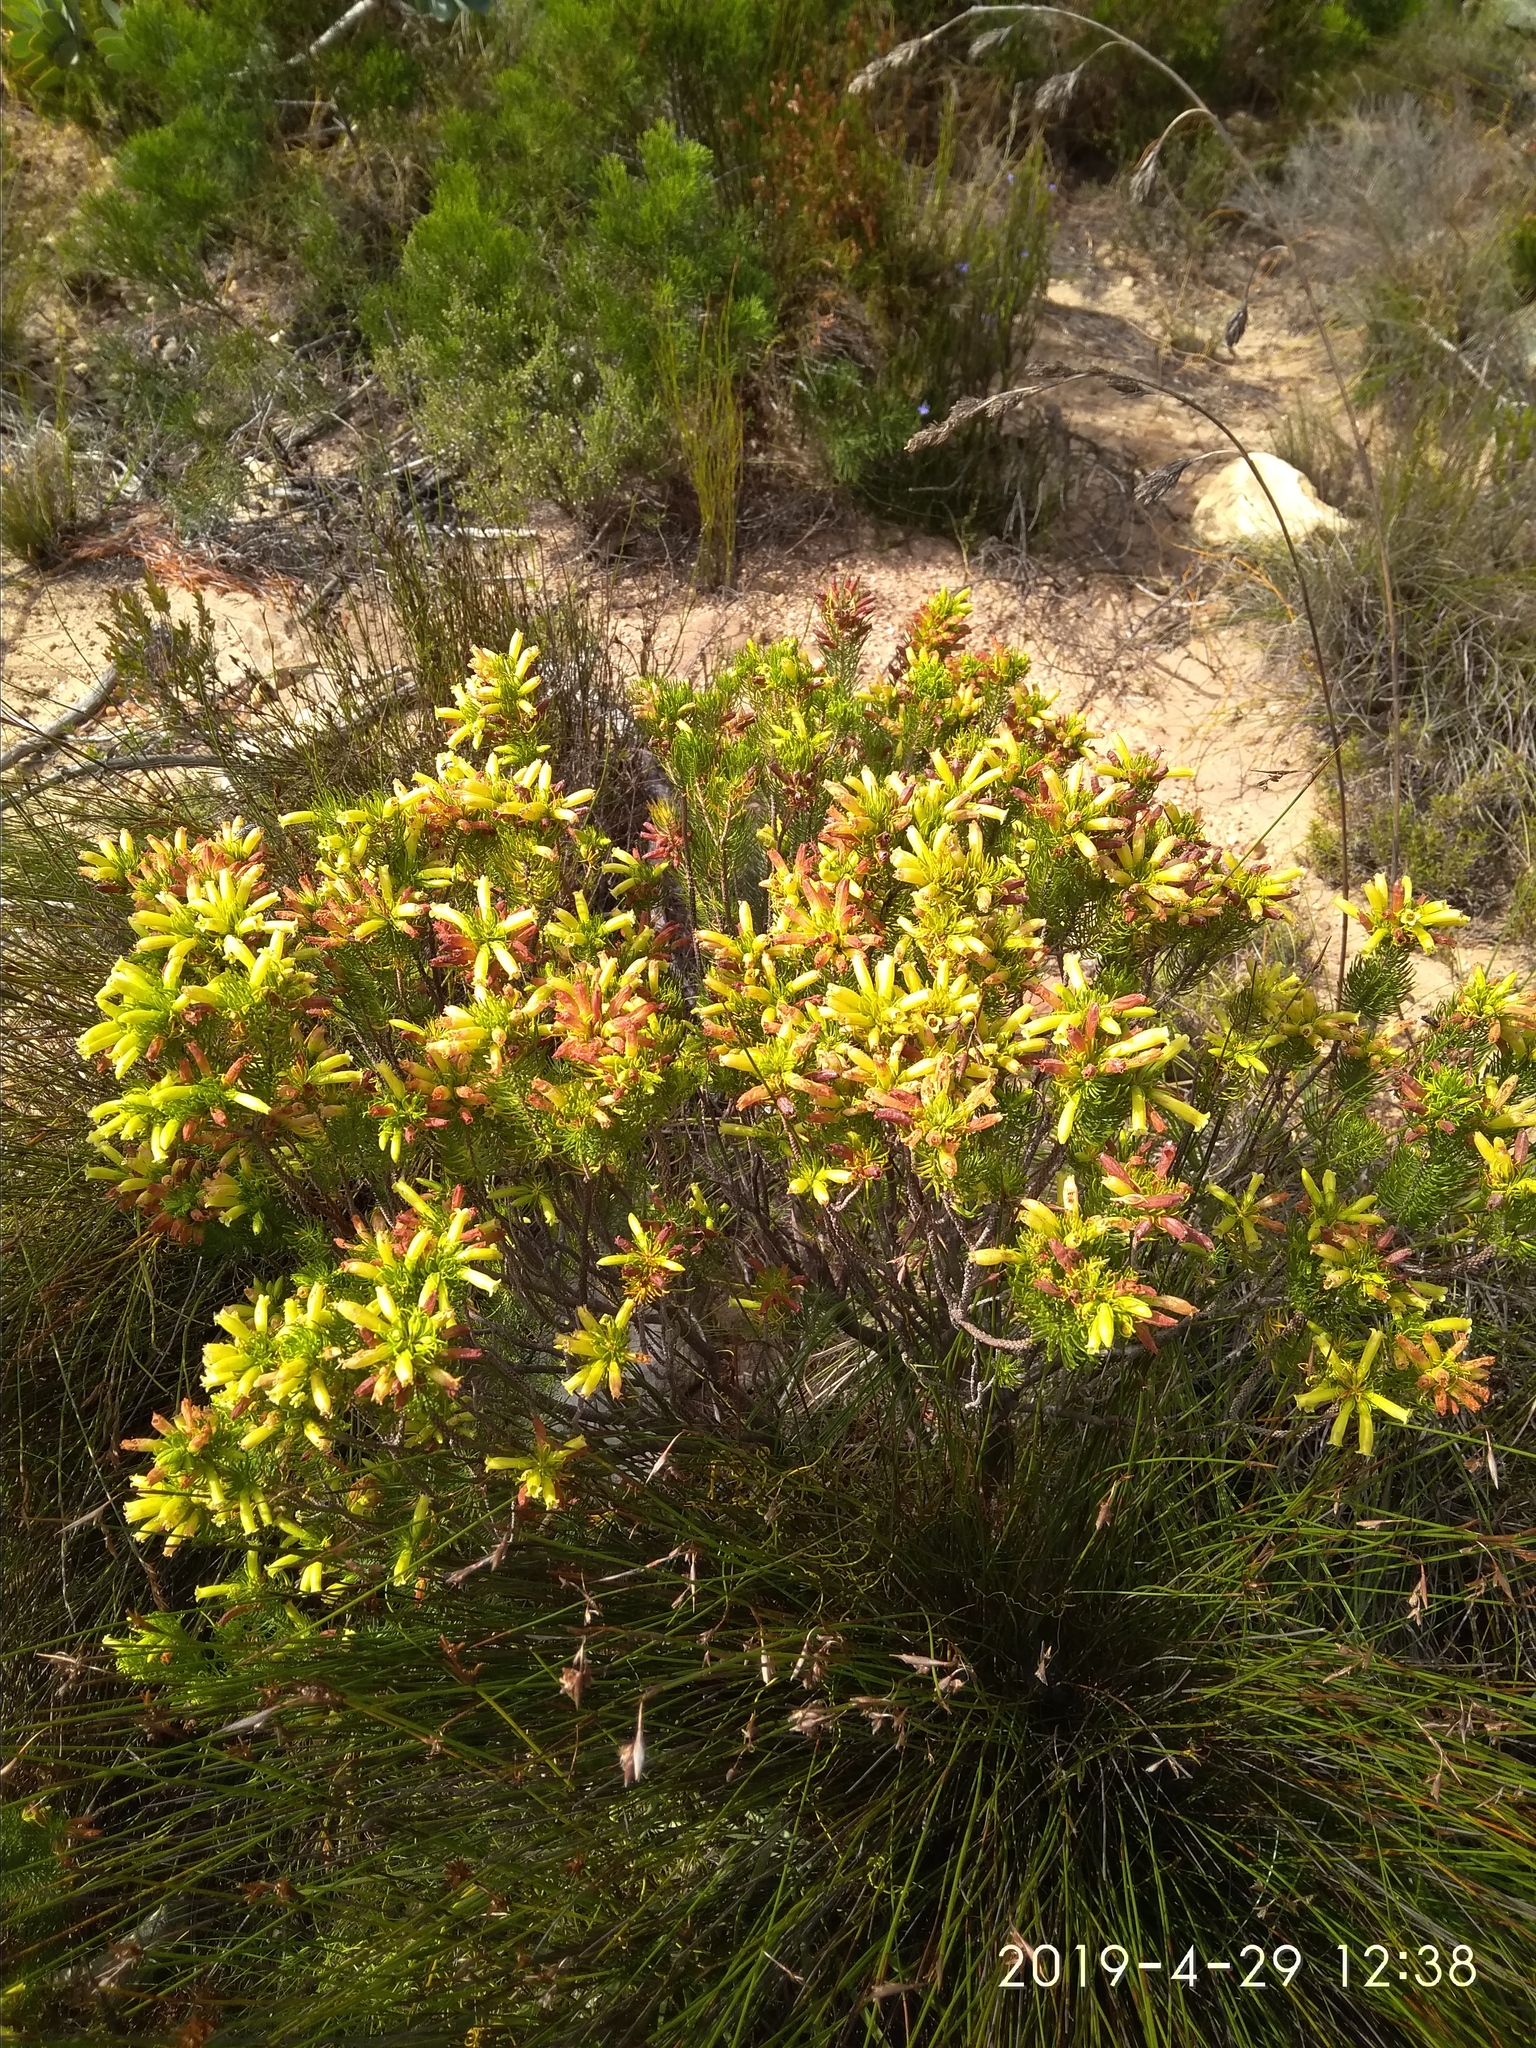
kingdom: Plantae
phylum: Tracheophyta
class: Magnoliopsida
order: Ericales
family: Ericaceae
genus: Erica
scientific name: Erica viscaria
